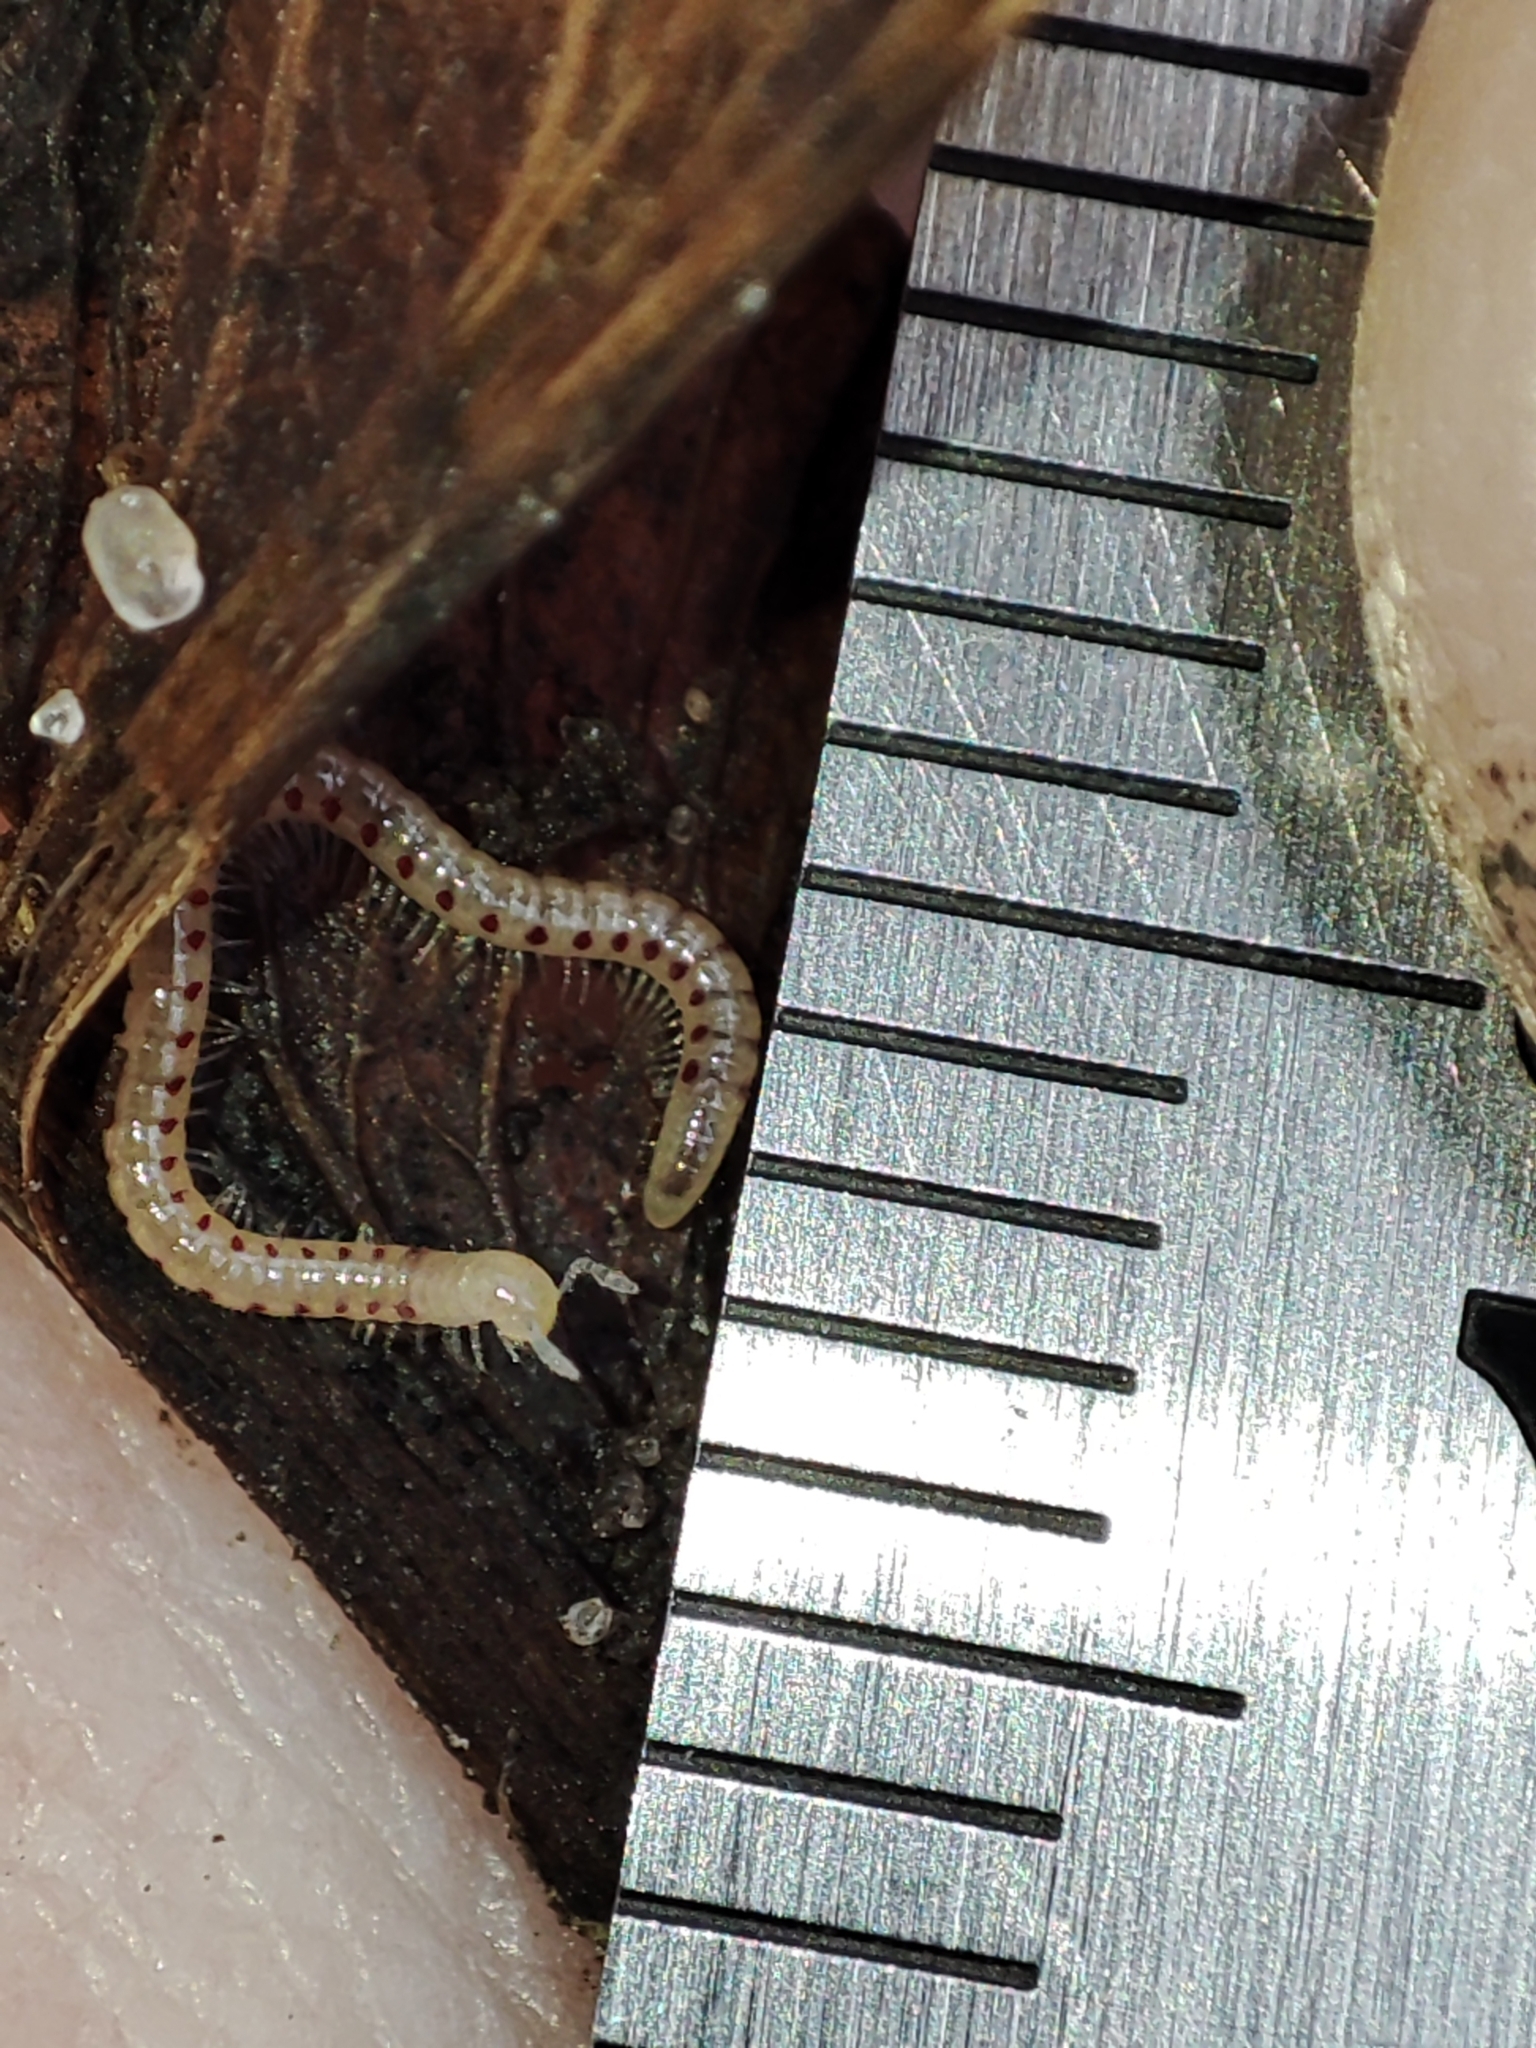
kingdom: Animalia
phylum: Arthropoda
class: Diplopoda
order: Julida
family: Blaniulidae
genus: Blaniulus
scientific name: Blaniulus guttulatus
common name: Spotted snake millipede
